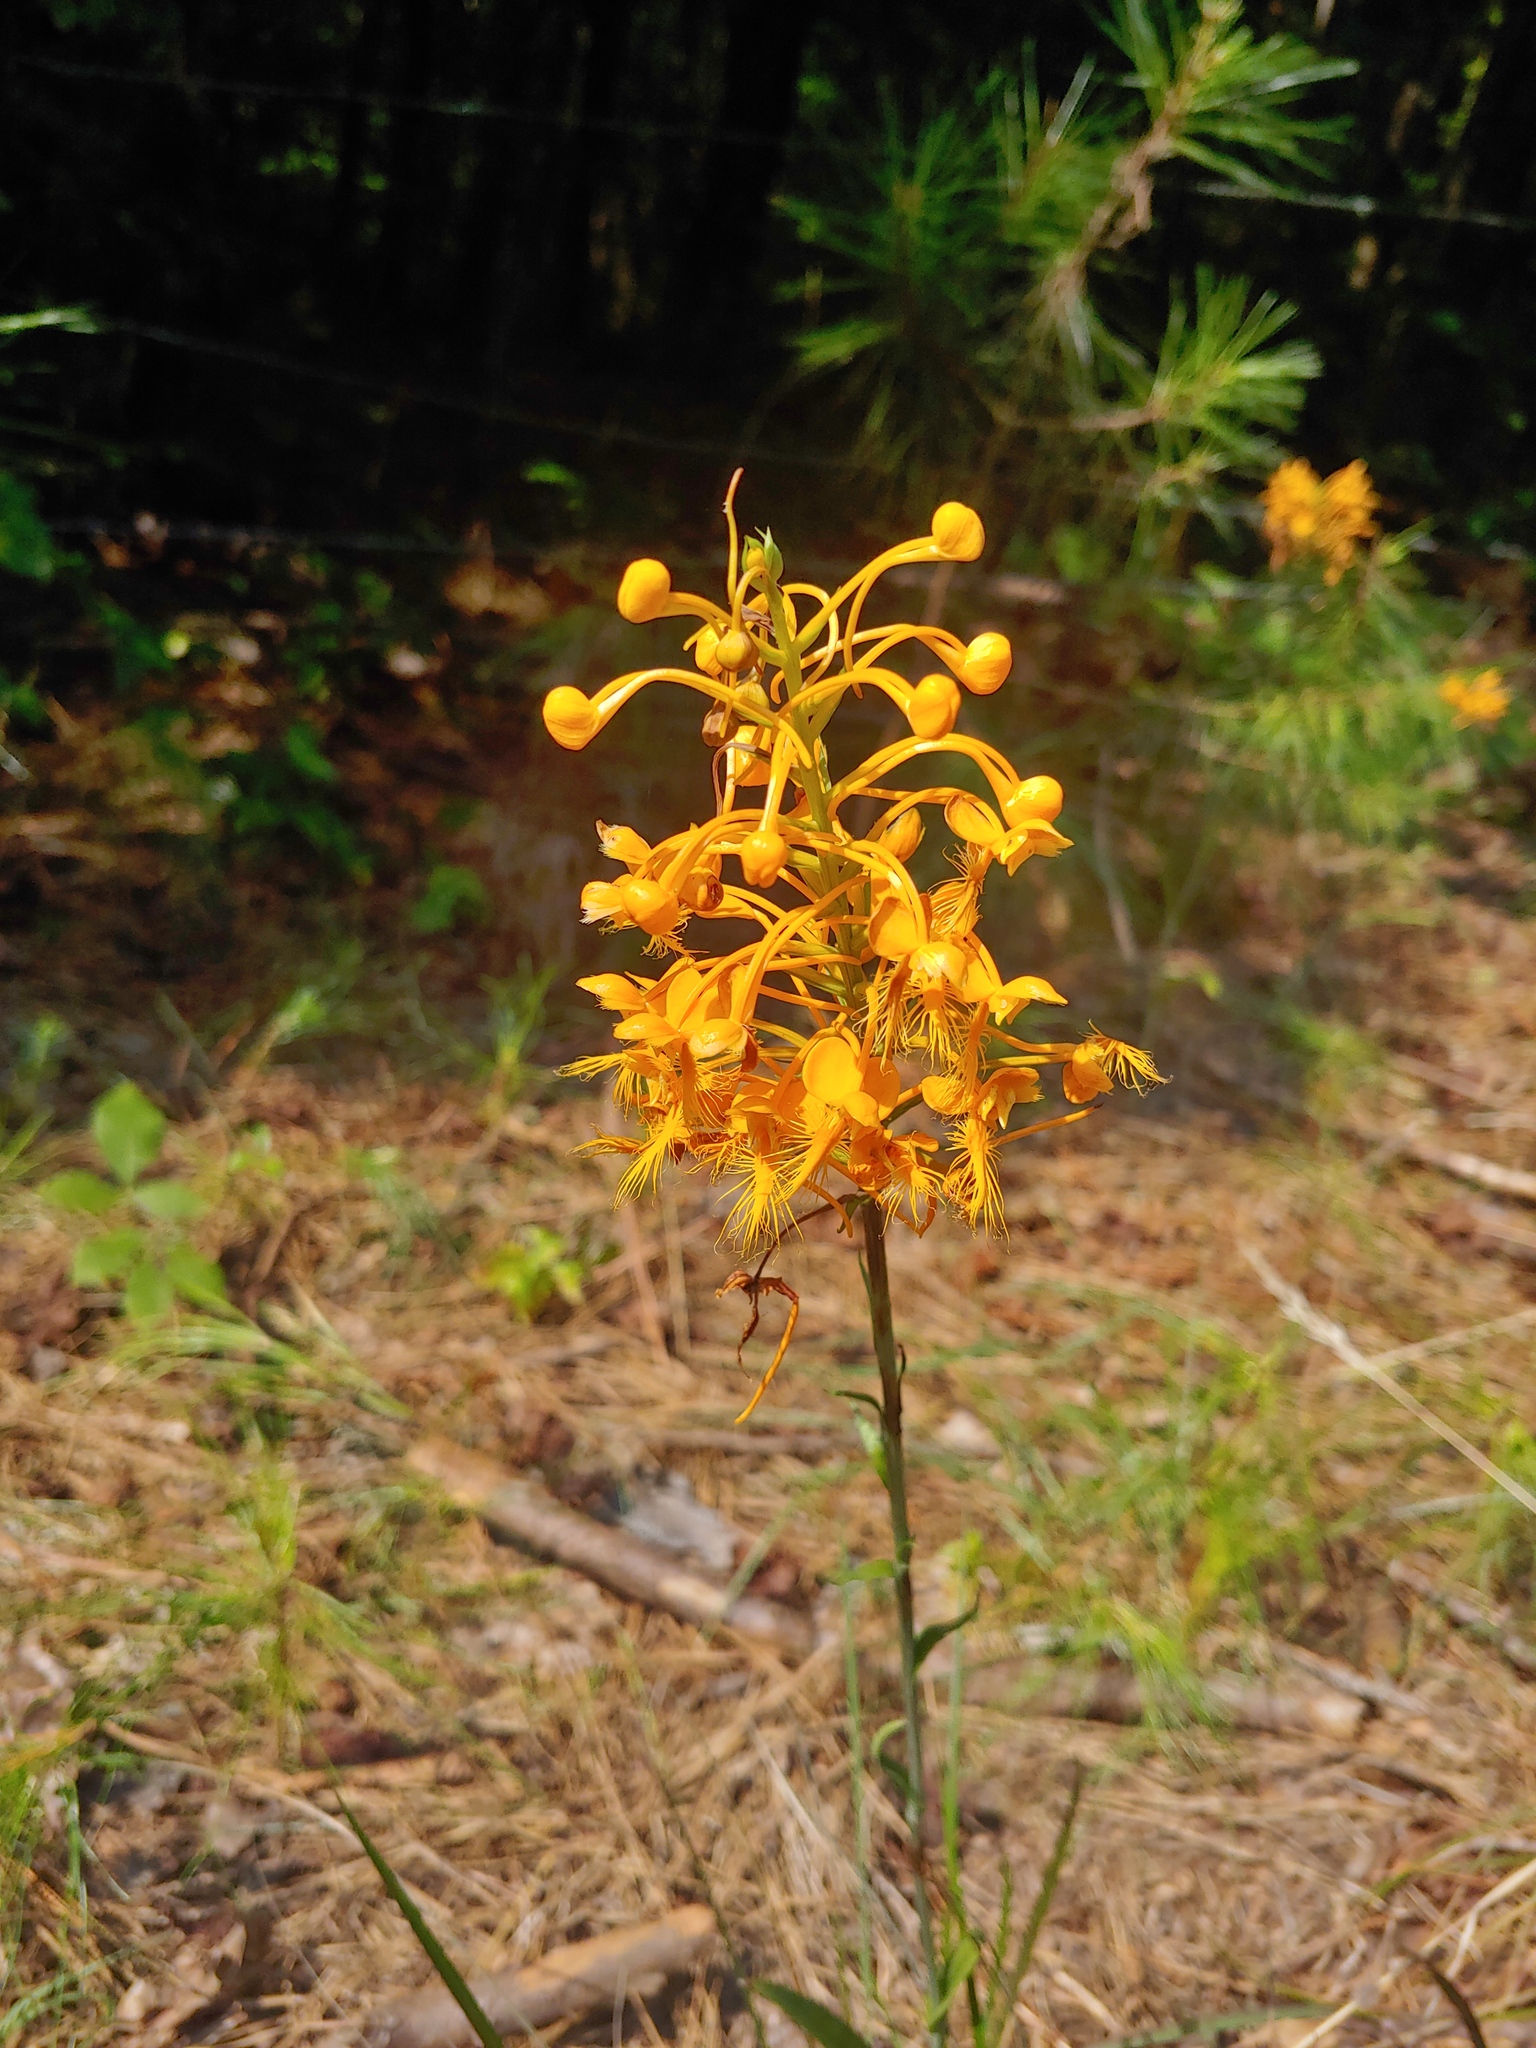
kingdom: Plantae
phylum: Tracheophyta
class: Liliopsida
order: Asparagales
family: Orchidaceae
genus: Platanthera
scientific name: Platanthera ciliaris
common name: Yellow fringed orchid
